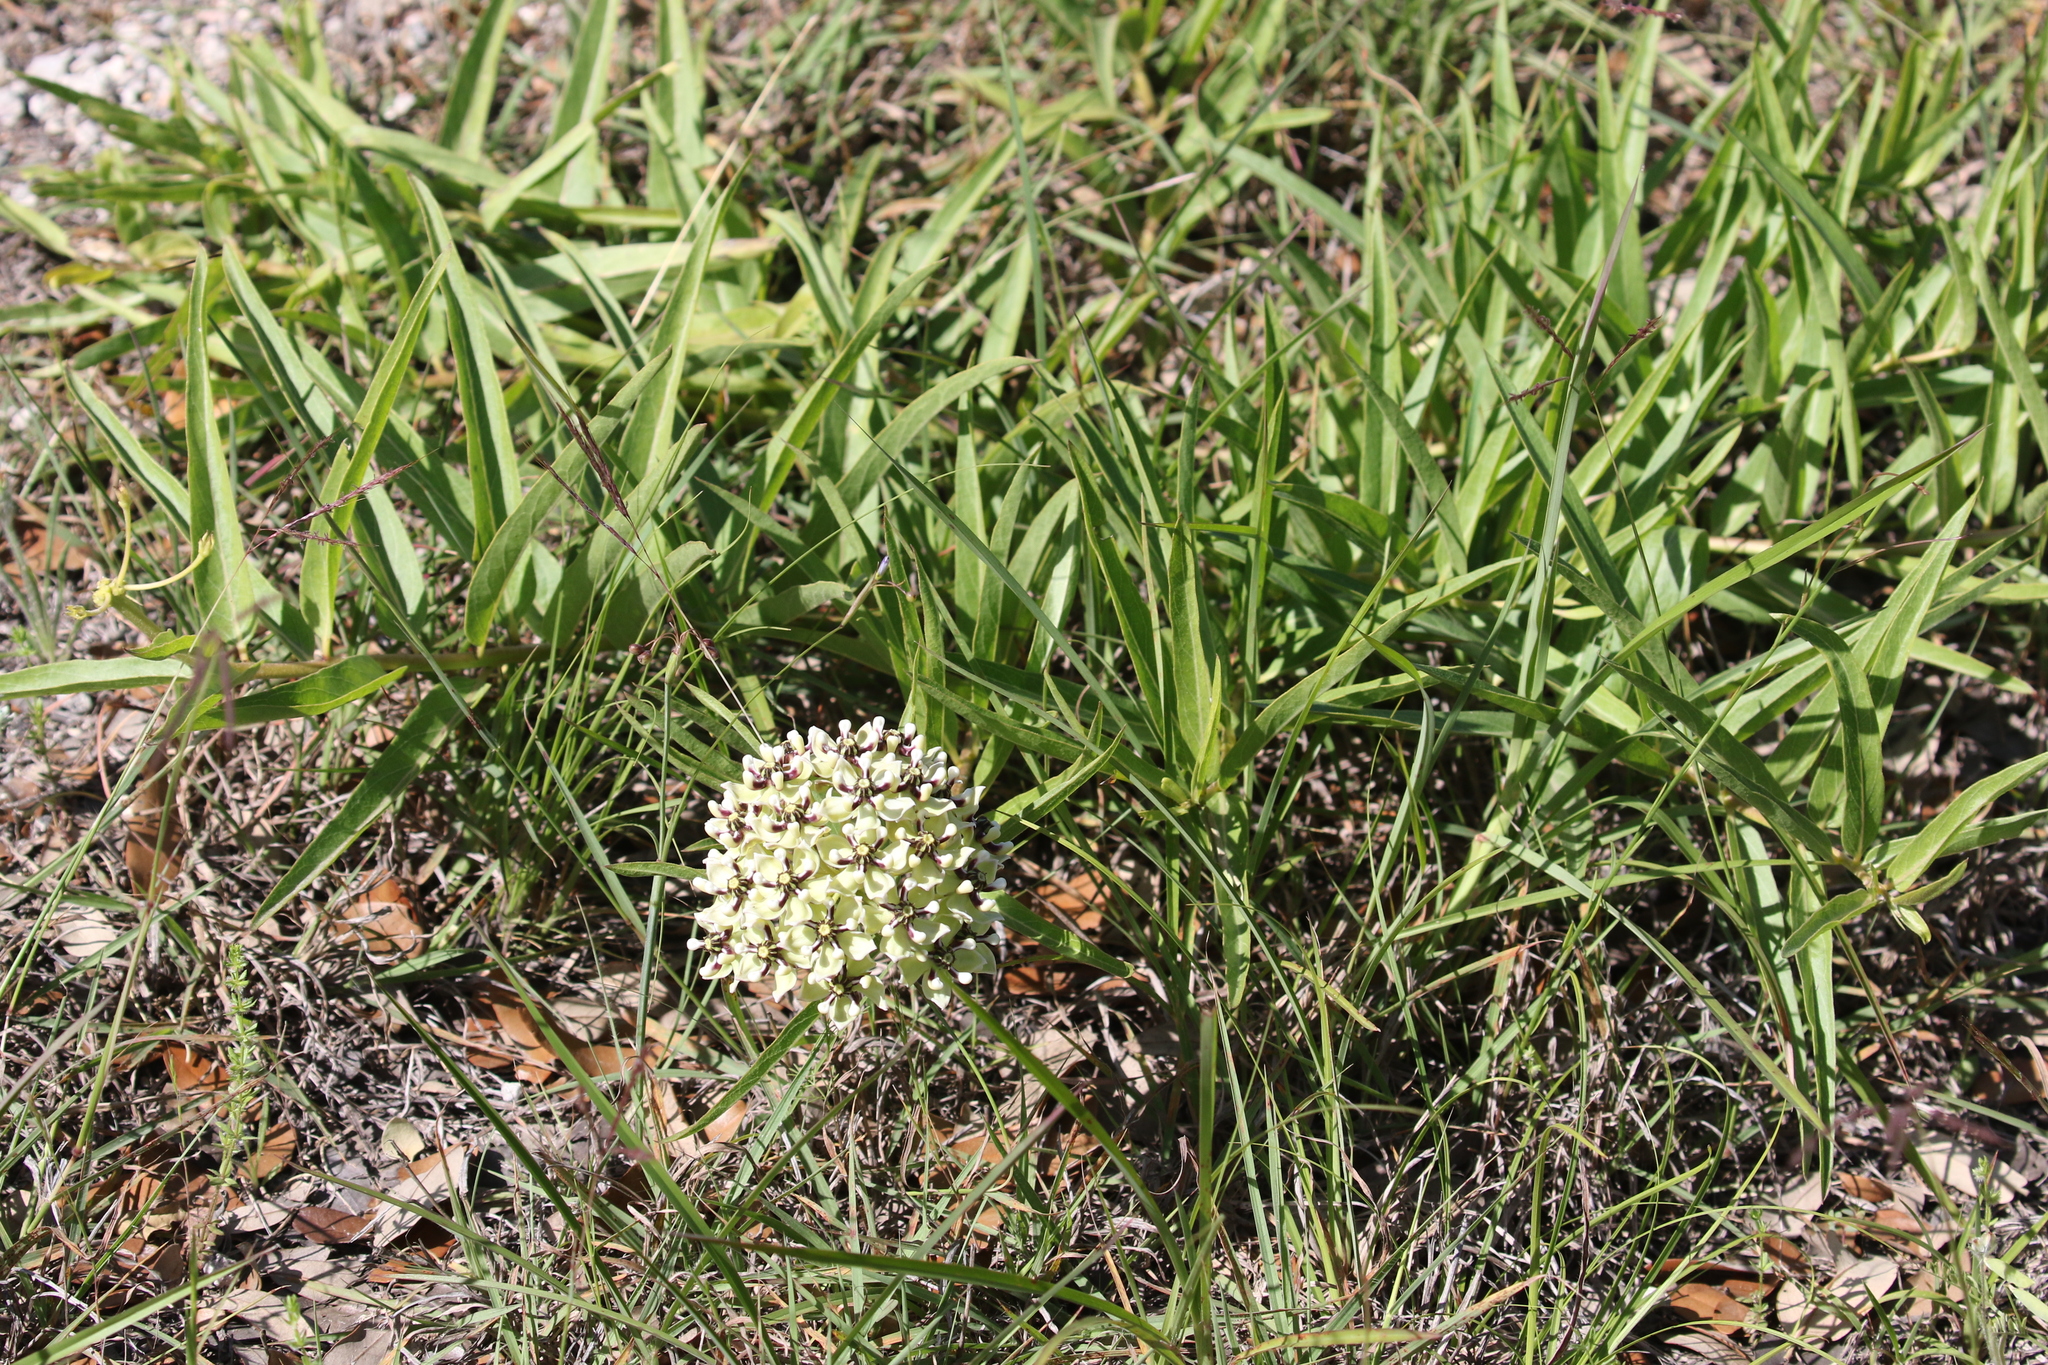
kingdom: Plantae
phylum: Tracheophyta
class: Magnoliopsida
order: Gentianales
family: Apocynaceae
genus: Asclepias
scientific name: Asclepias asperula
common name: Antelope horns
